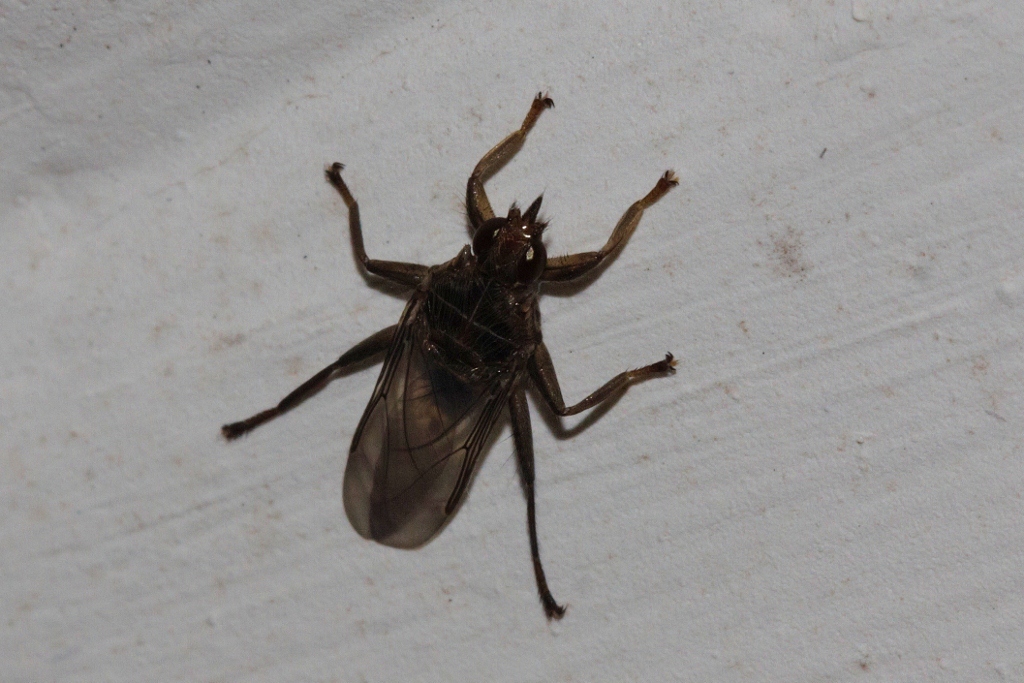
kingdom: Animalia
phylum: Arthropoda
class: Insecta
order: Diptera
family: Hippoboscidae
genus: Pseudolynchia
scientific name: Pseudolynchia canariensis
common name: Louse fly
